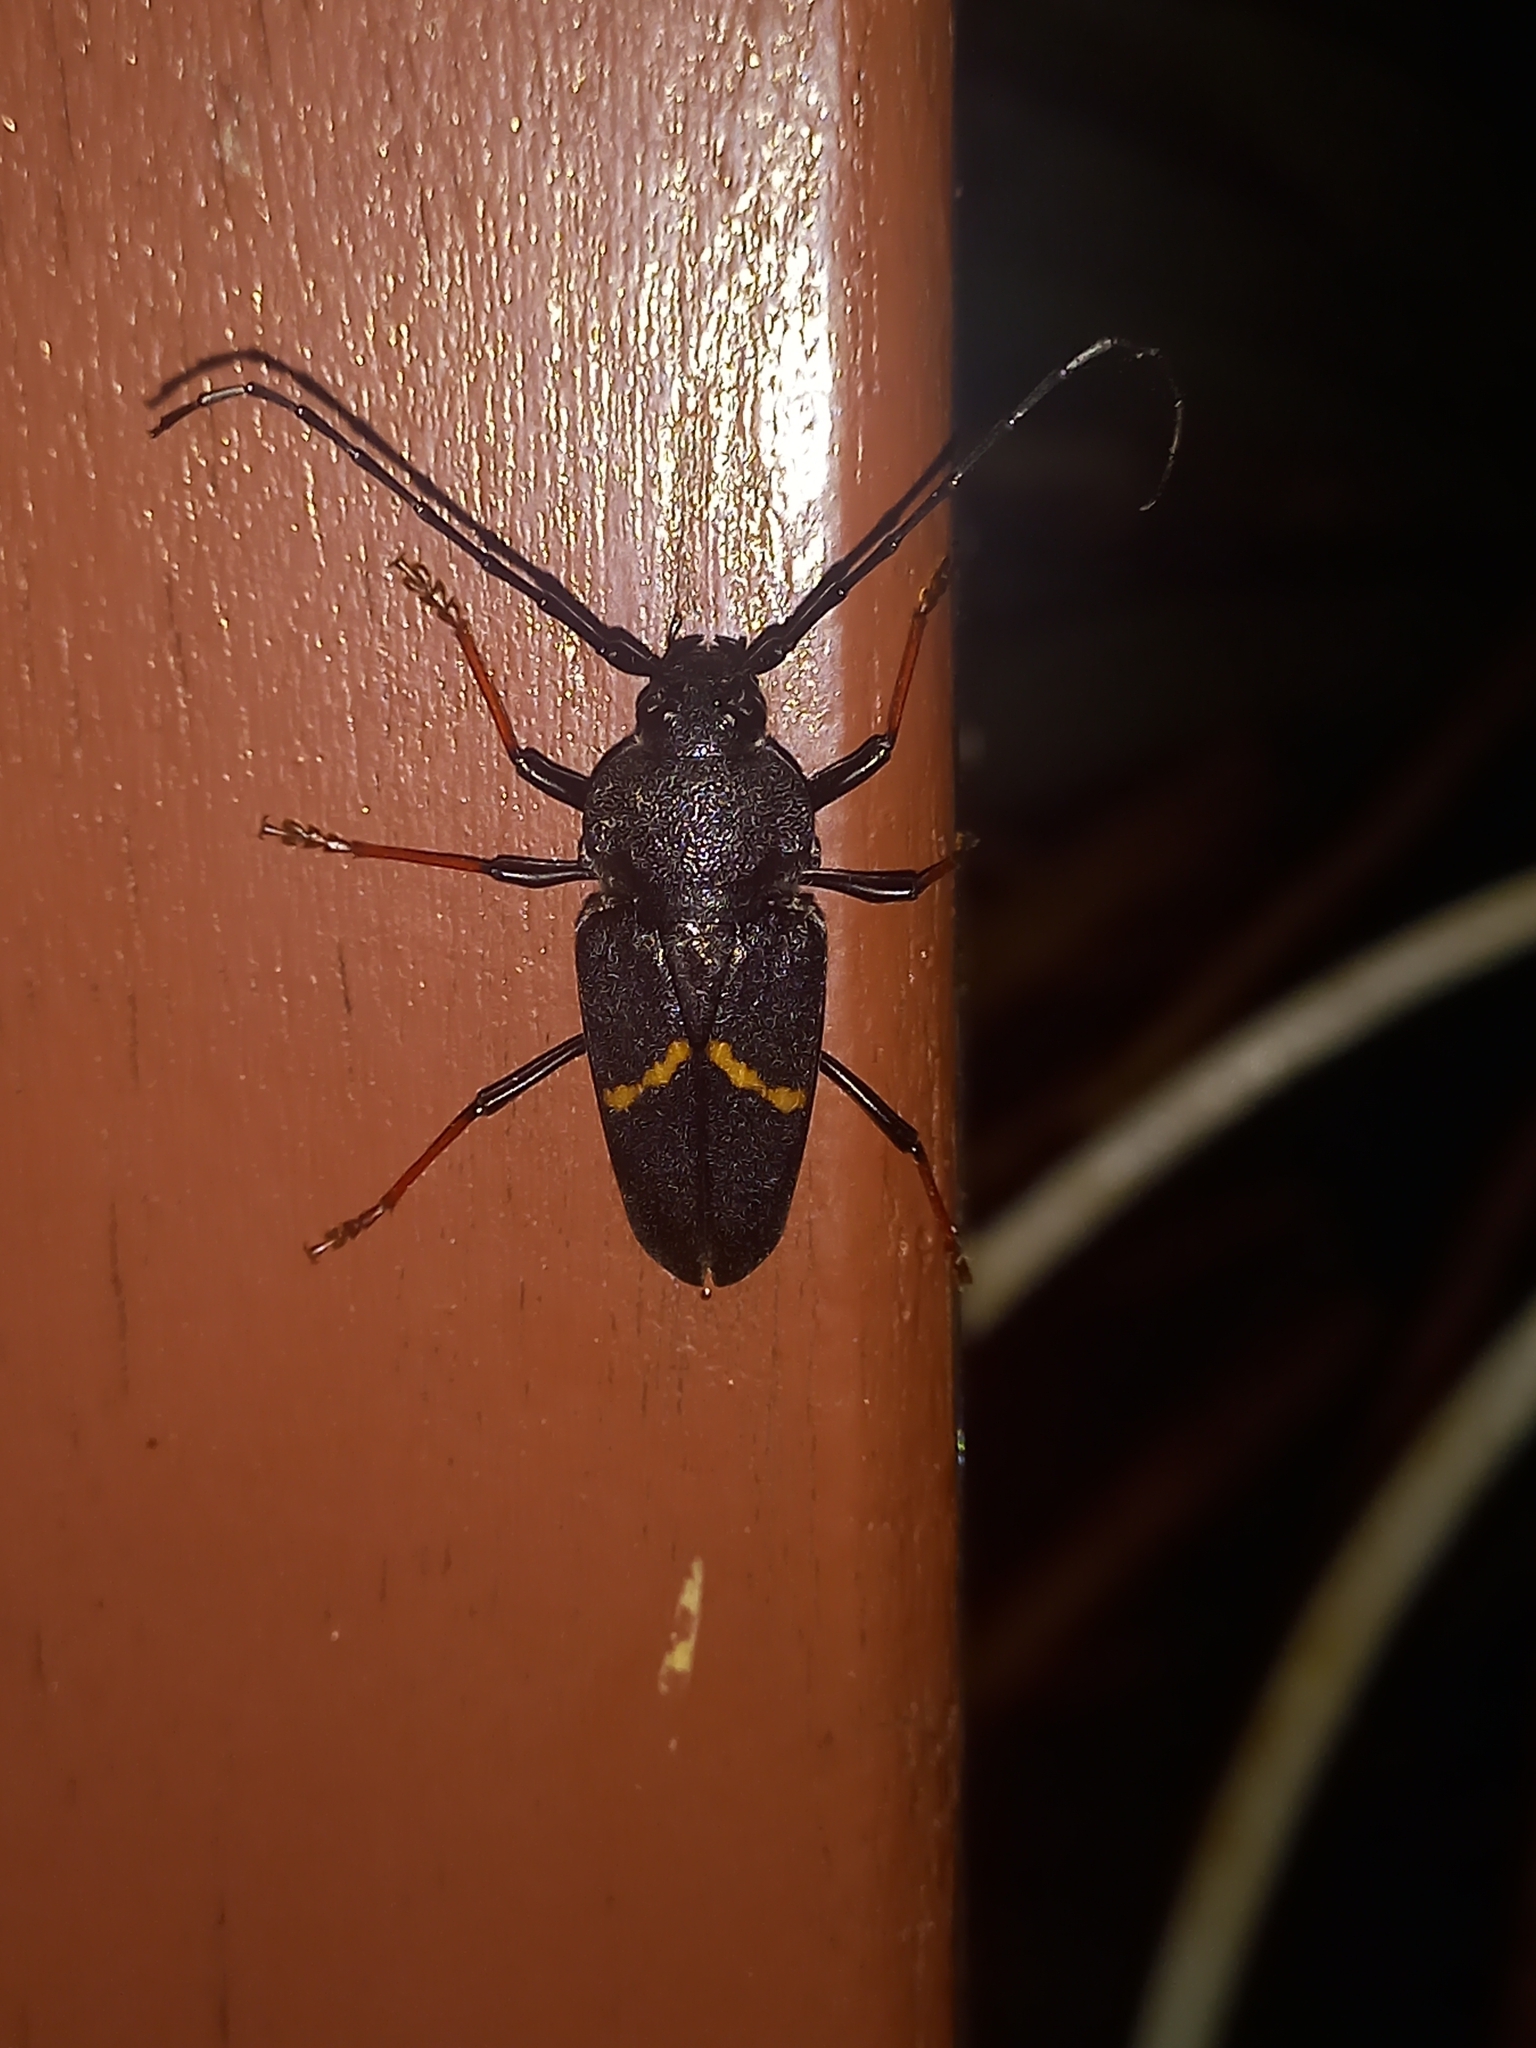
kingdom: Animalia
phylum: Arthropoda
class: Insecta
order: Coleoptera
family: Cerambycidae
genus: Megaderus
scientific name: Megaderus stigma
